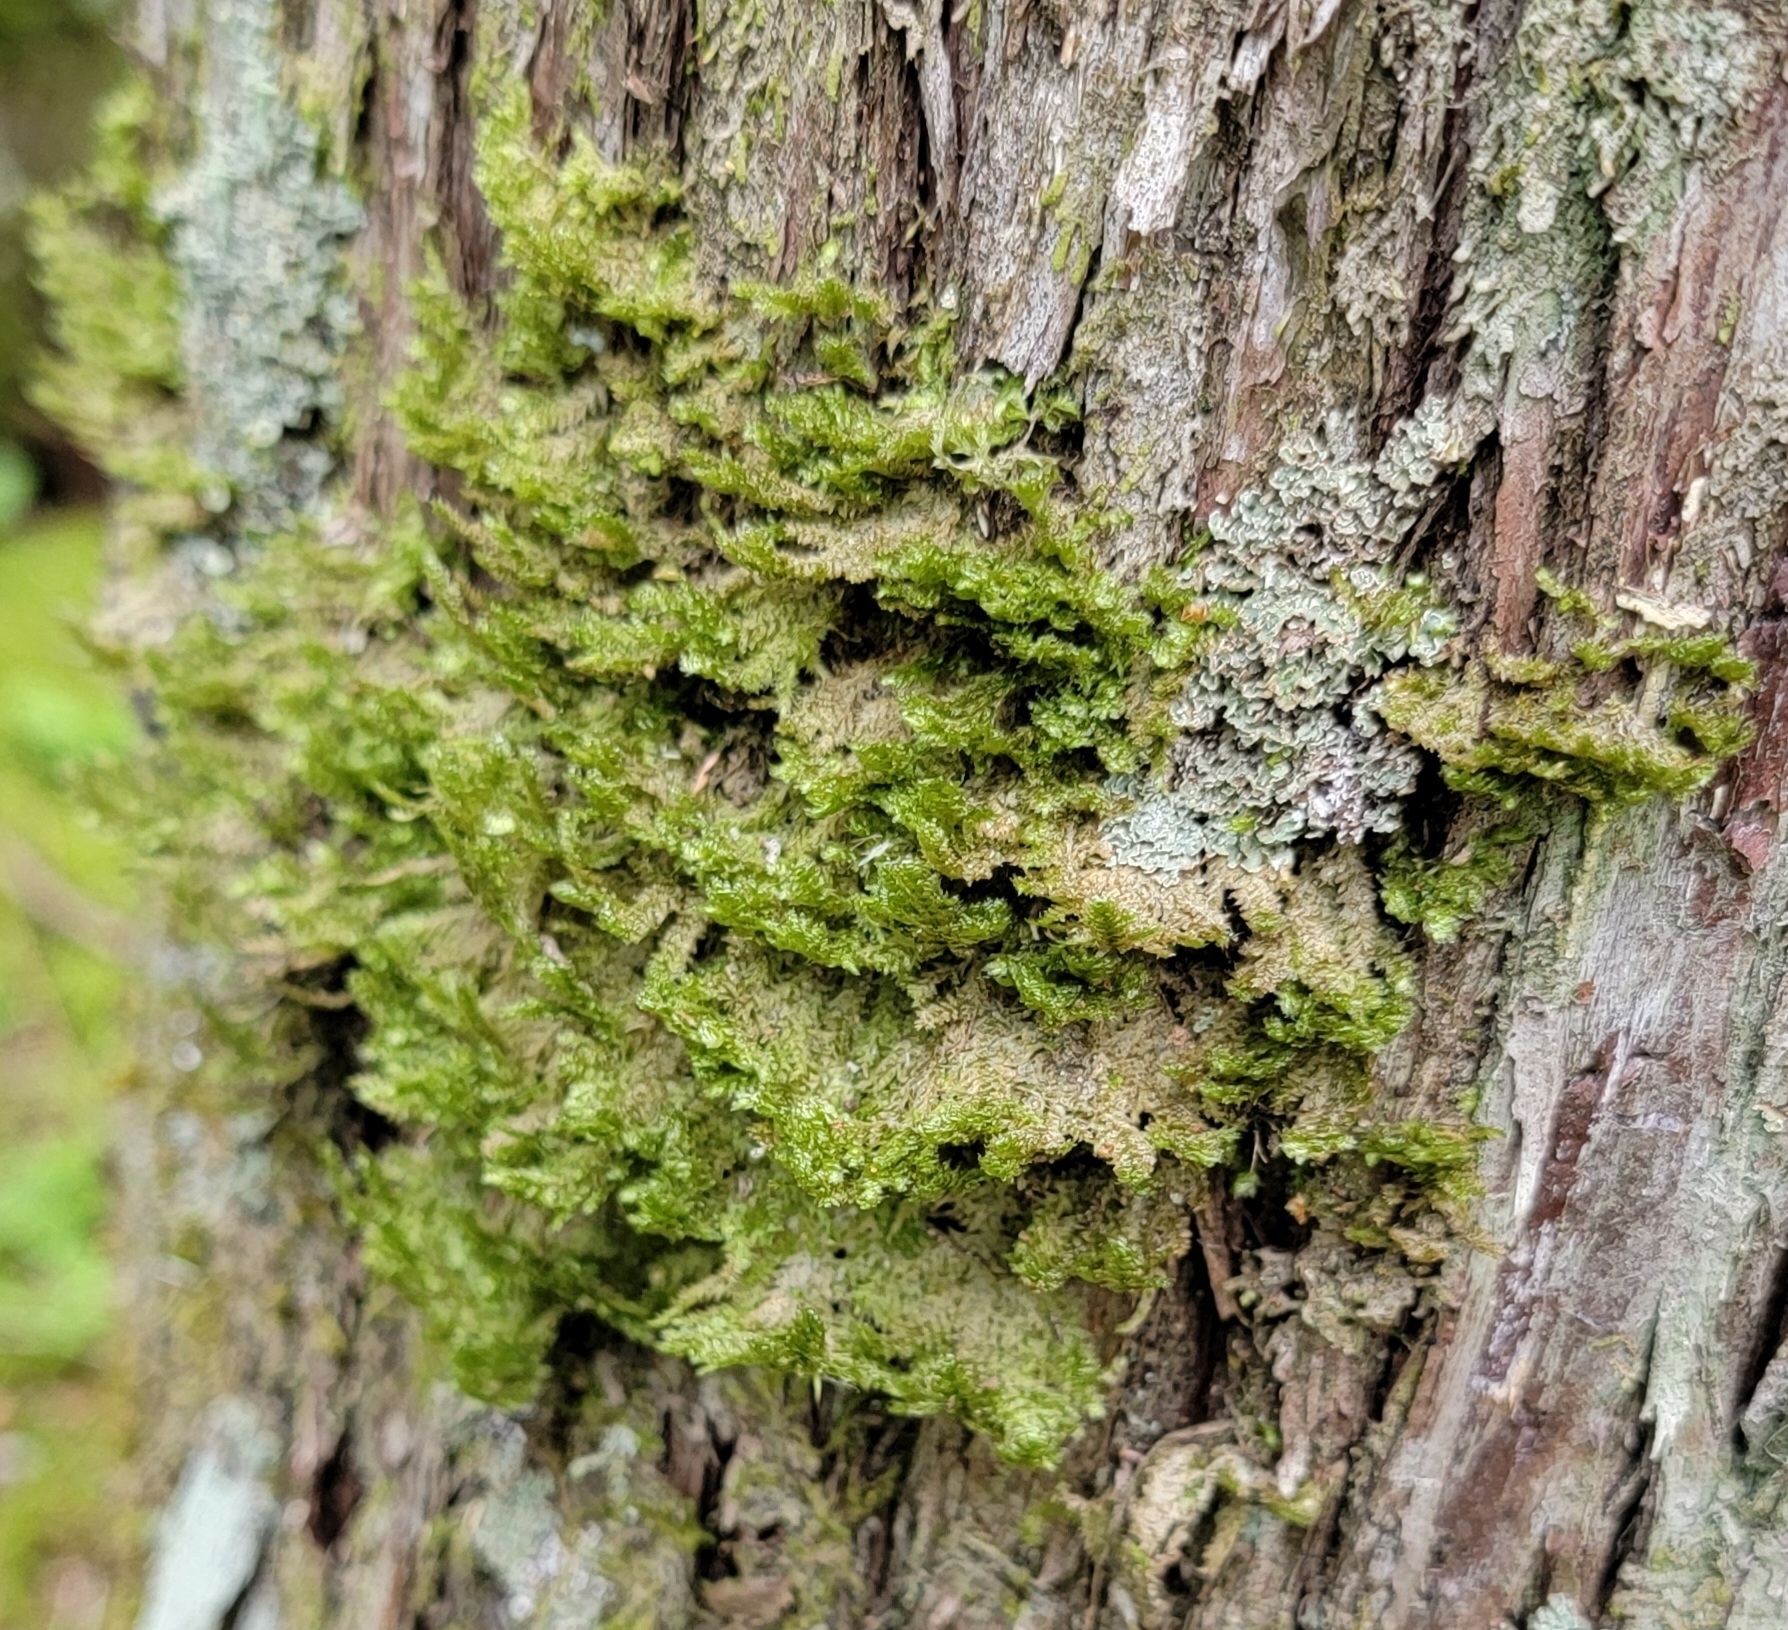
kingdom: Plantae
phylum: Bryophyta
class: Bryopsida
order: Hypnales
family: Neckeraceae
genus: Neckera
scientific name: Neckera pennata
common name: Feathery neckera
